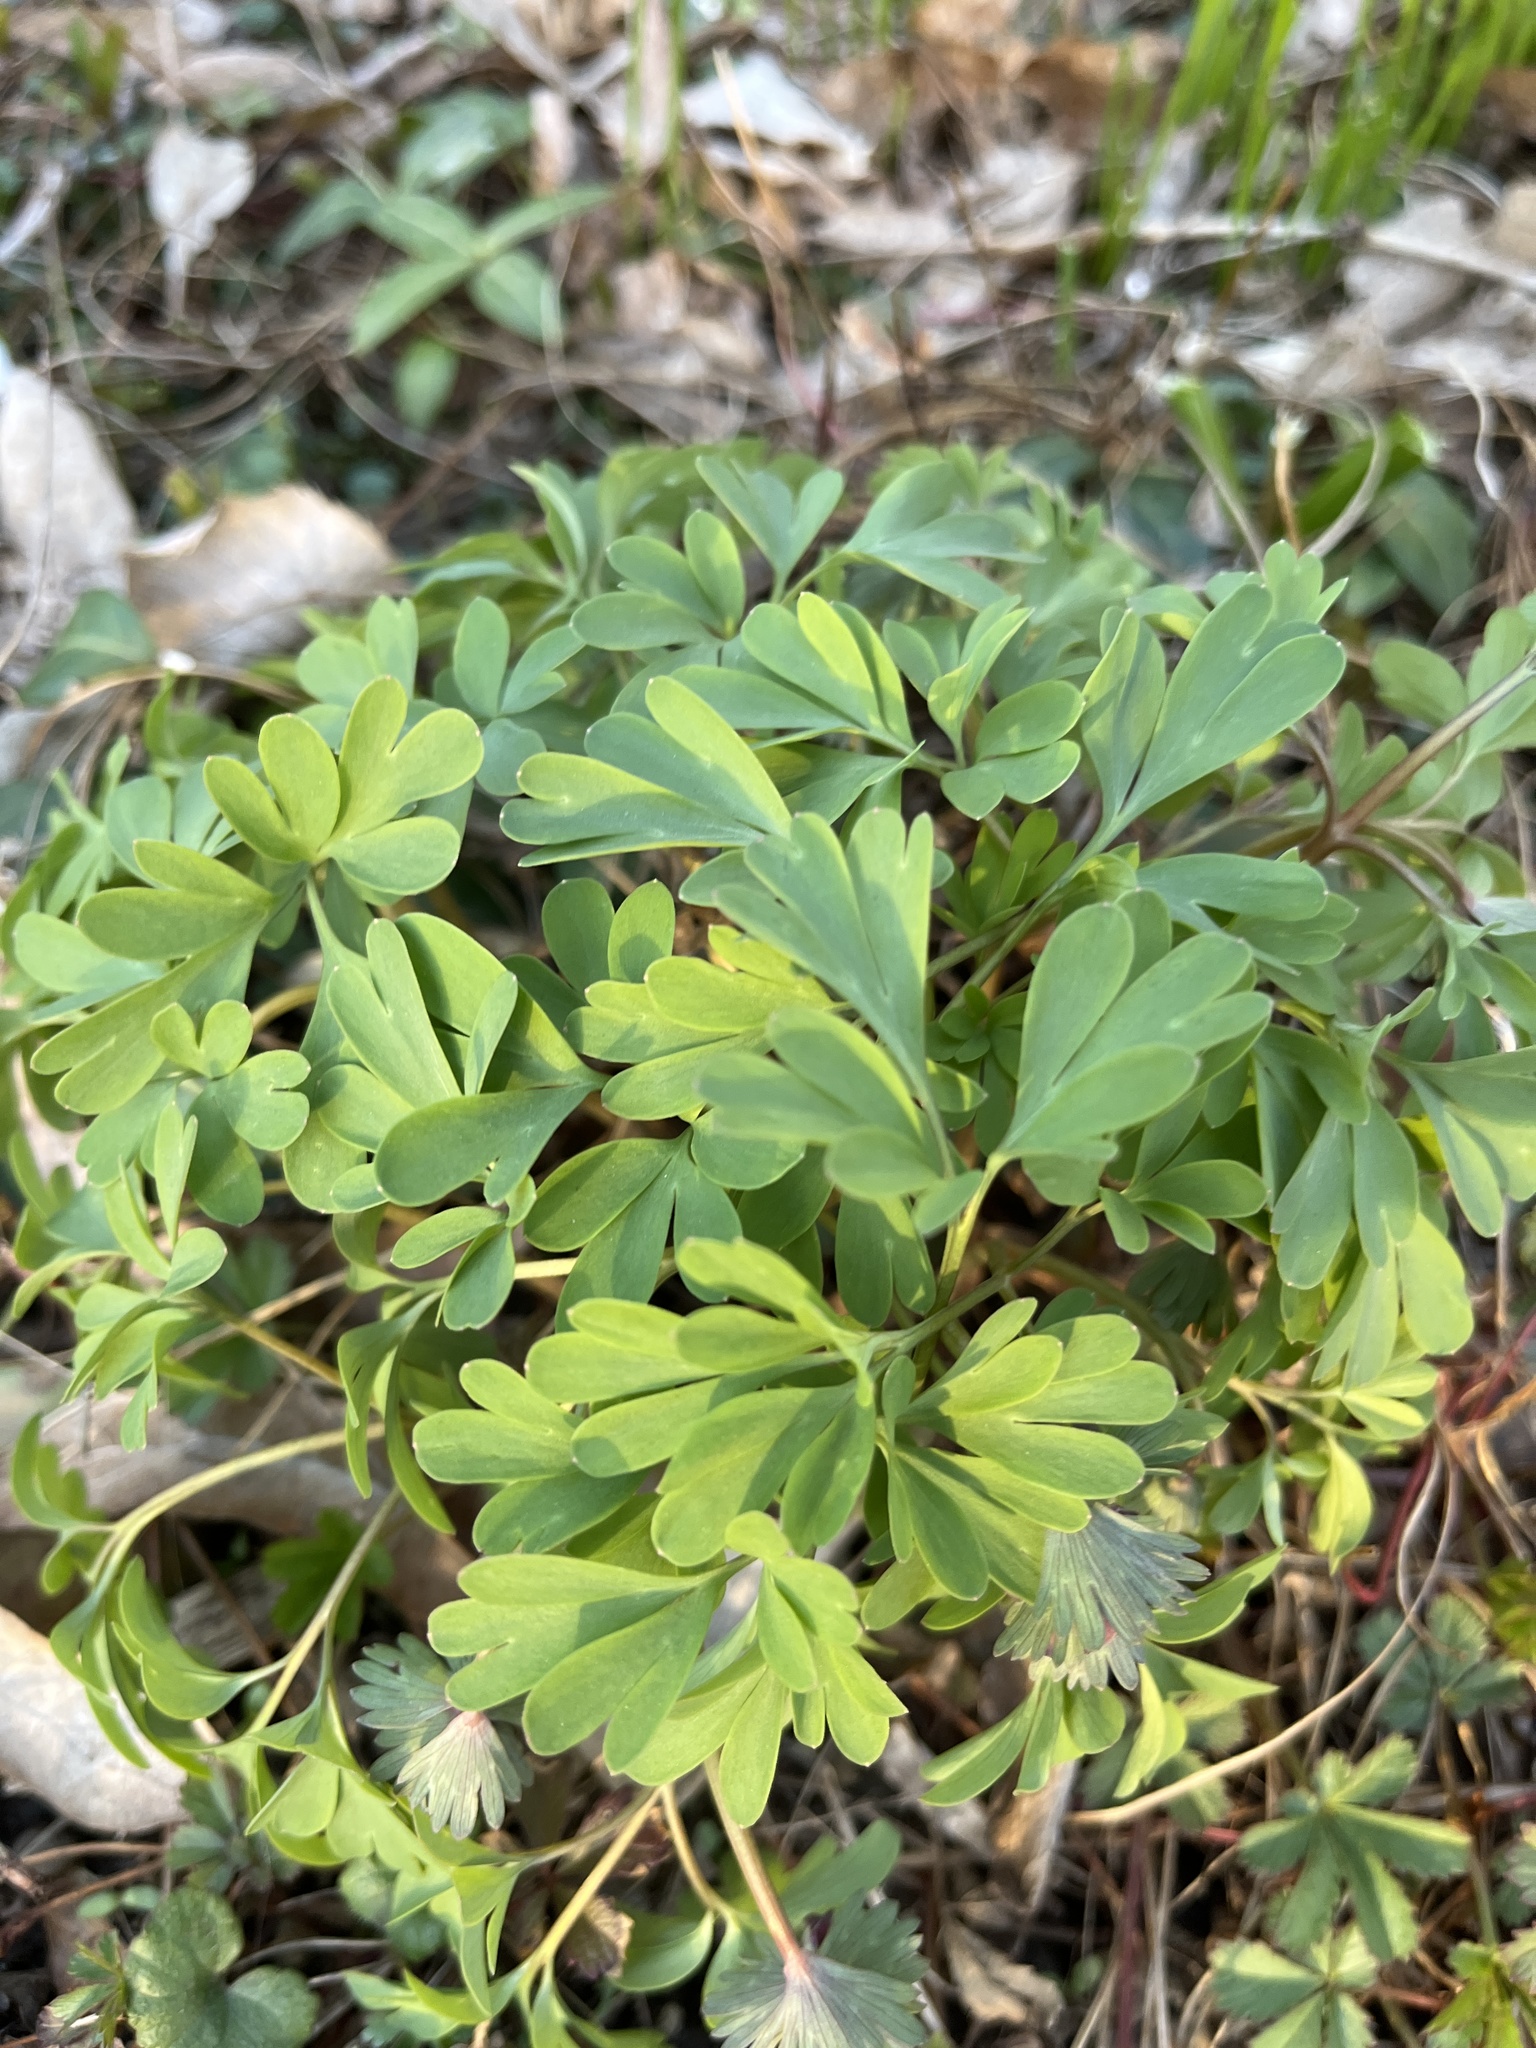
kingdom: Plantae
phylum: Tracheophyta
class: Magnoliopsida
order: Ranunculales
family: Papaveraceae
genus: Corydalis
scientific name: Corydalis solida
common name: Bird-in-a-bush
